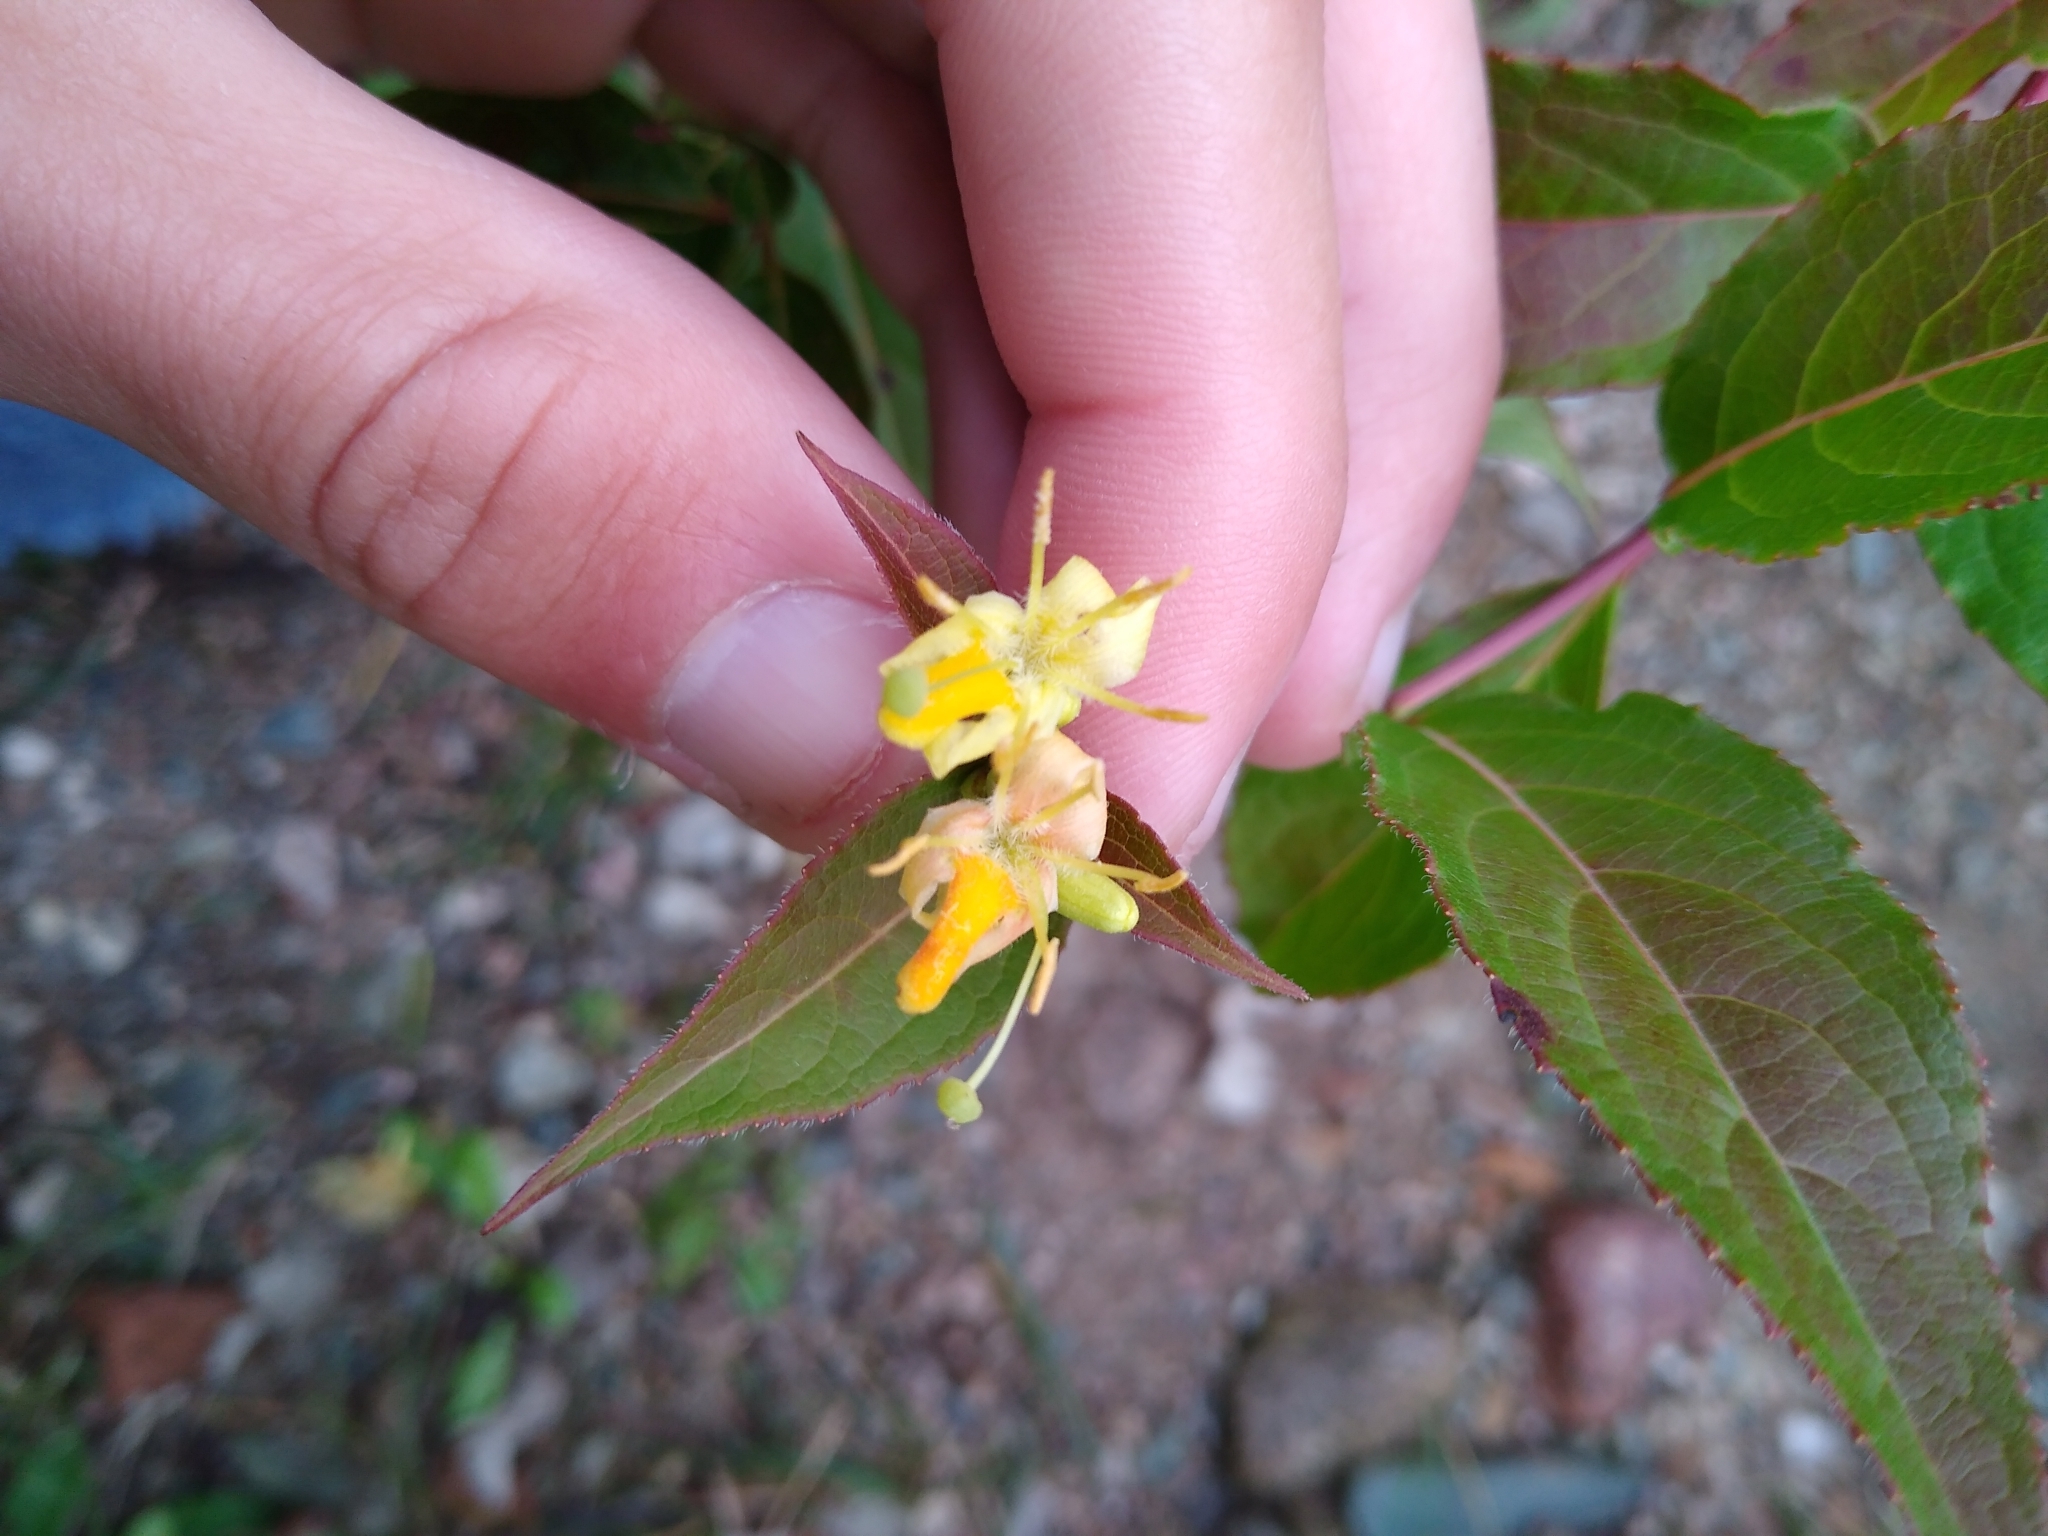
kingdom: Plantae
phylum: Tracheophyta
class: Magnoliopsida
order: Dipsacales
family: Caprifoliaceae
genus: Diervilla
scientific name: Diervilla lonicera
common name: Bush-honeysuckle
